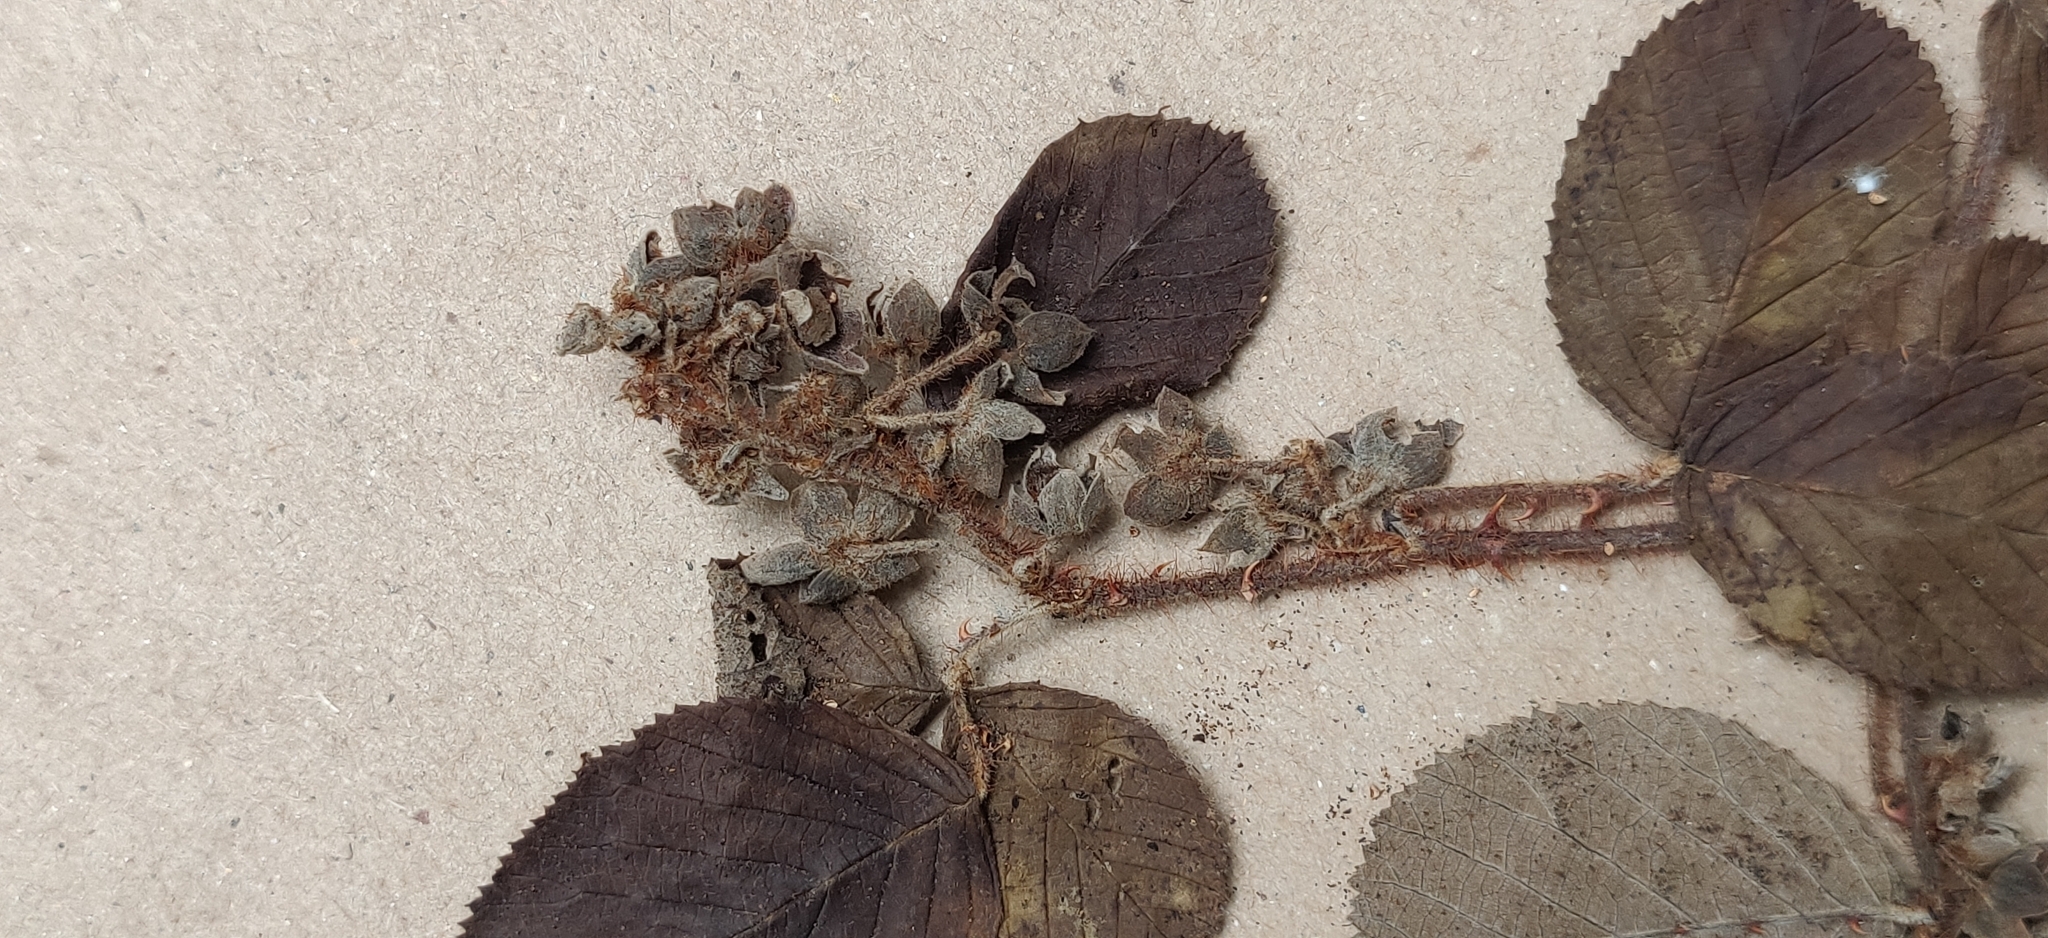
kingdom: Plantae
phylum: Tracheophyta
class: Magnoliopsida
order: Rosales
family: Rosaceae
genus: Rubus
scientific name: Rubus ellipticus
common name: Cheeseberry
